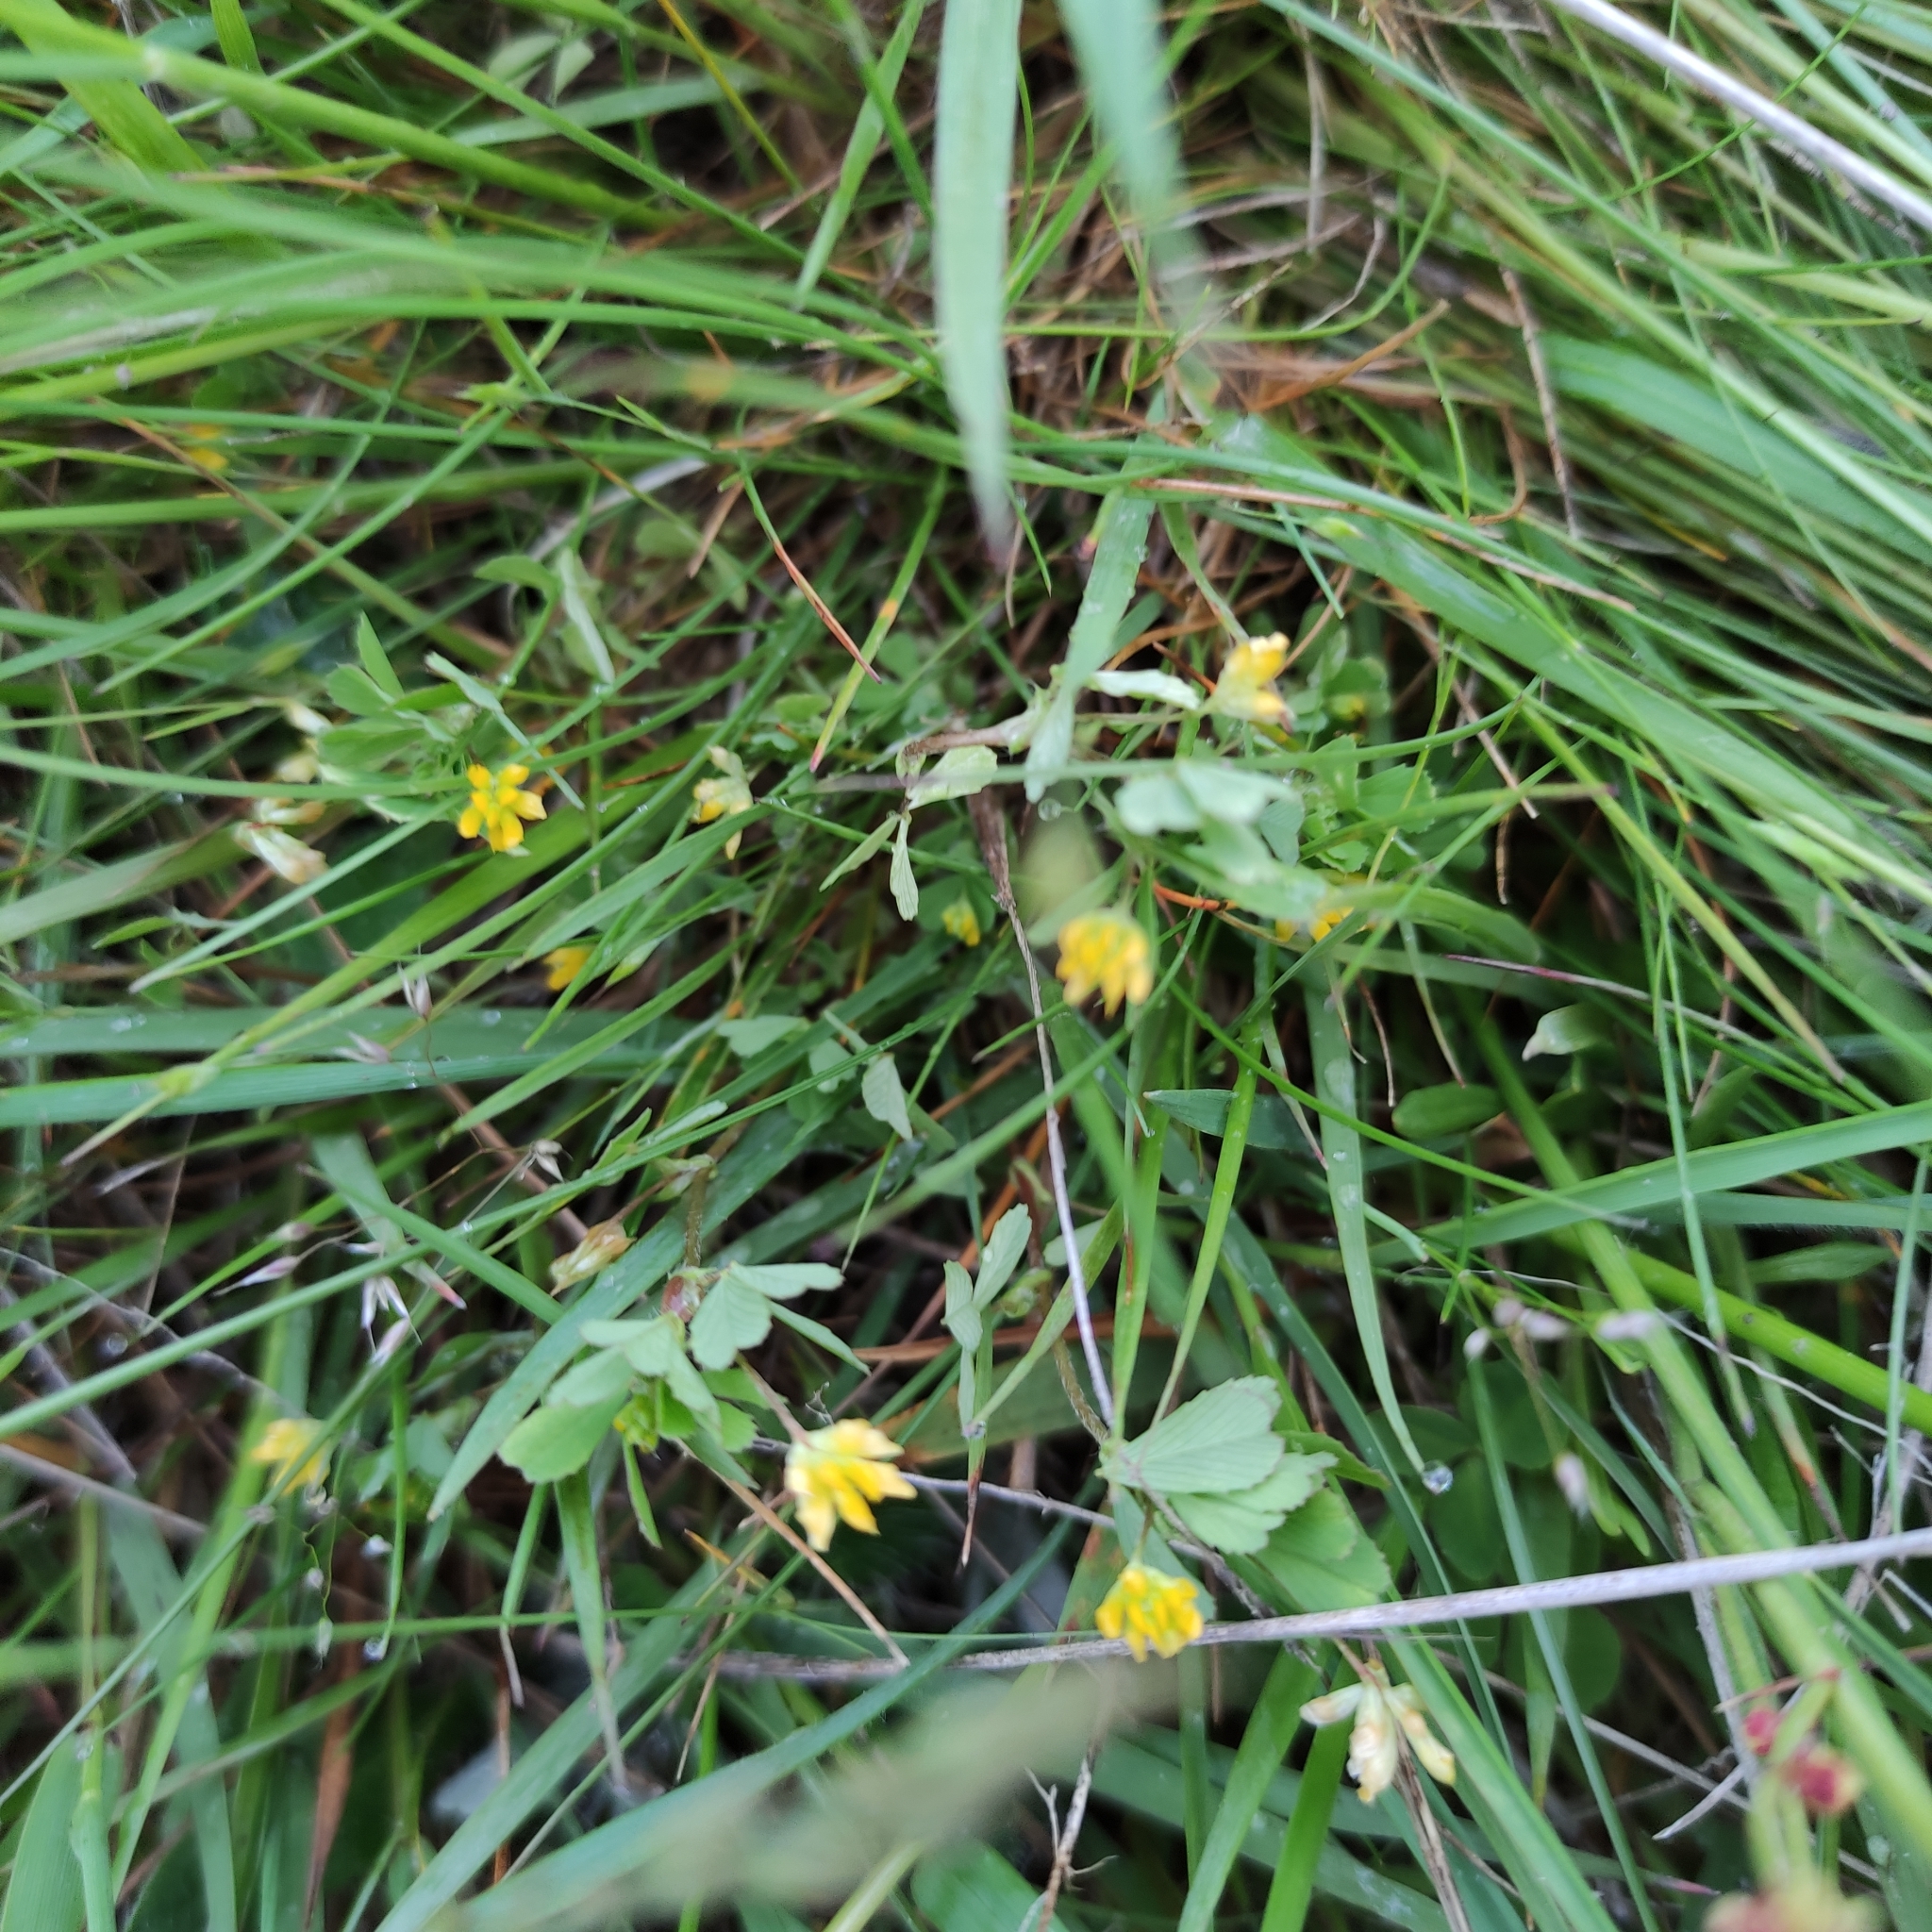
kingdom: Plantae
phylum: Tracheophyta
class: Magnoliopsida
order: Fabales
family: Fabaceae
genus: Trifolium
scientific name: Trifolium dubium
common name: Suckling clover
